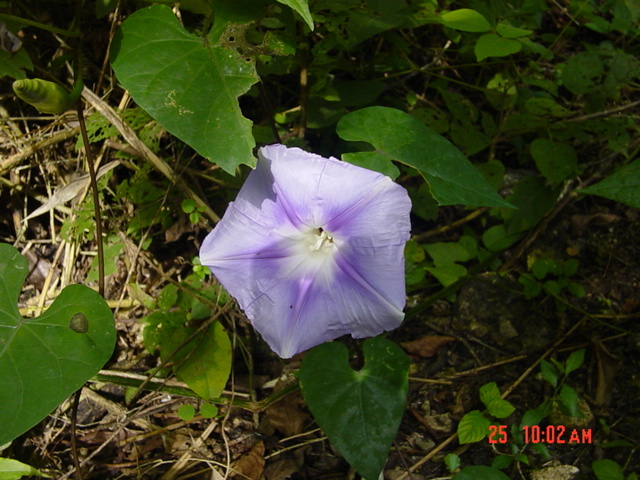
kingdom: Plantae
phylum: Tracheophyta
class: Magnoliopsida
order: Solanales
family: Convolvulaceae
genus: Ipomoea
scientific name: Ipomoea clavata
